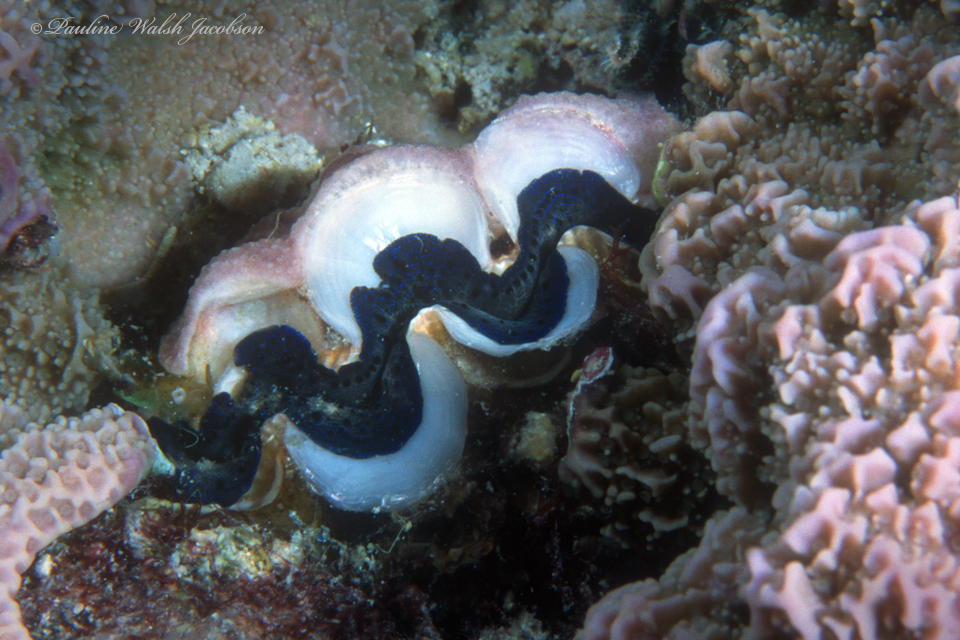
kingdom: Animalia
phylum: Mollusca
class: Bivalvia
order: Cardiida
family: Cardiidae
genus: Tridacna
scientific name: Tridacna crocea
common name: Boring clam
